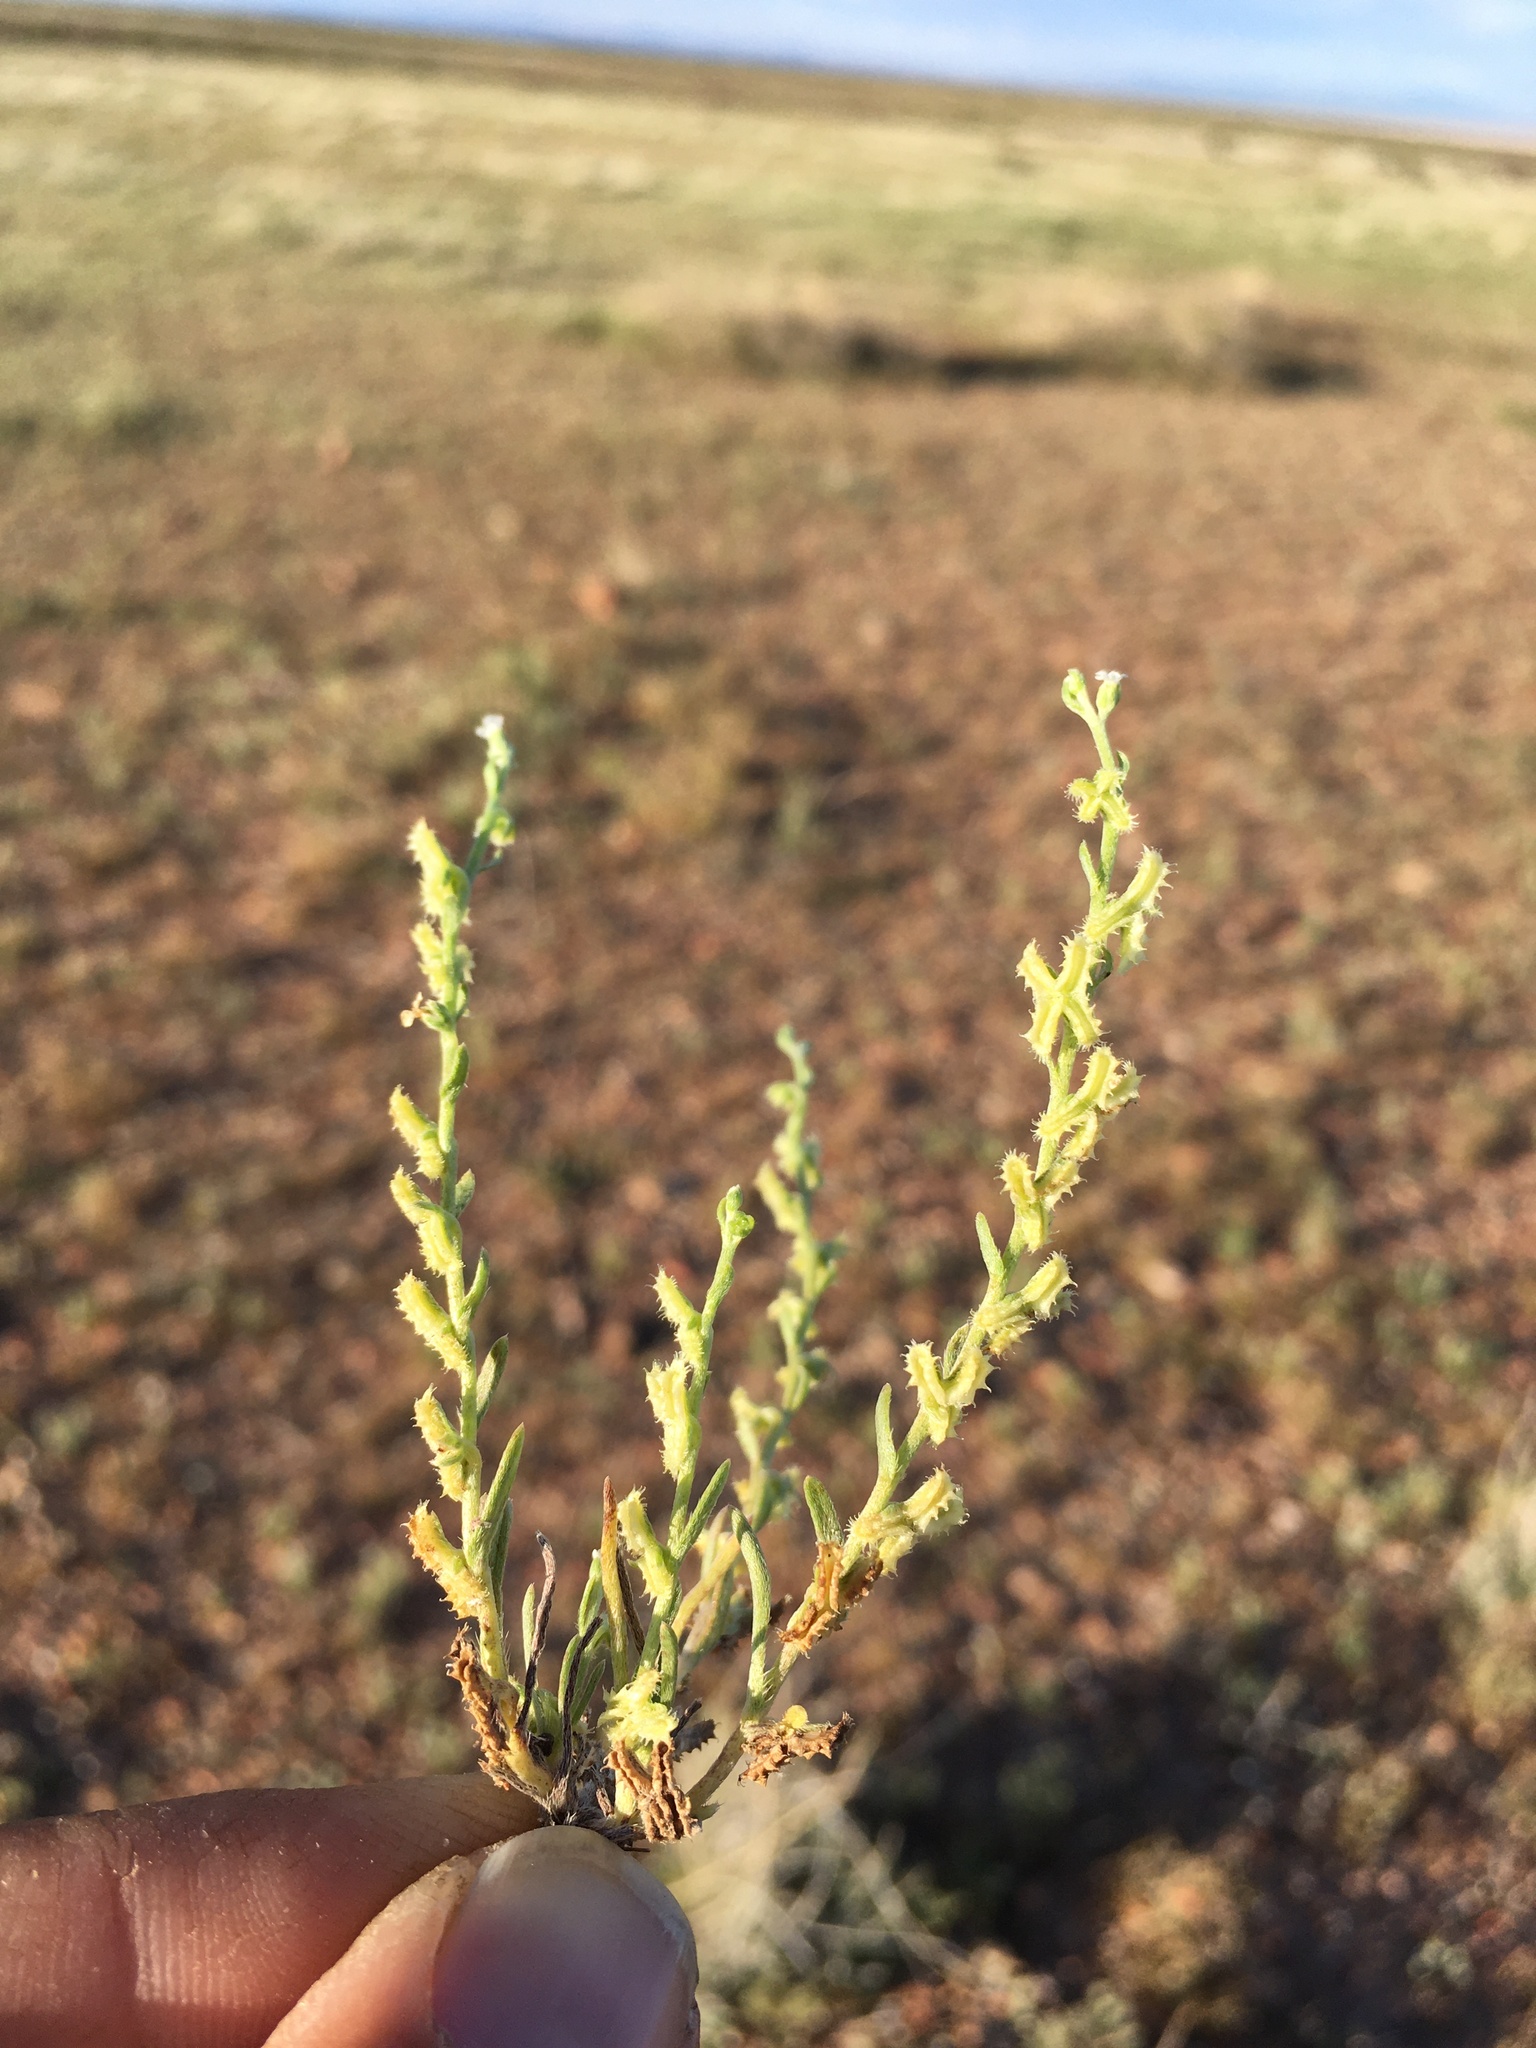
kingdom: Plantae
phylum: Tracheophyta
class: Magnoliopsida
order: Boraginales
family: Boraginaceae
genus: Pectocarya
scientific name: Pectocarya platycarpa
